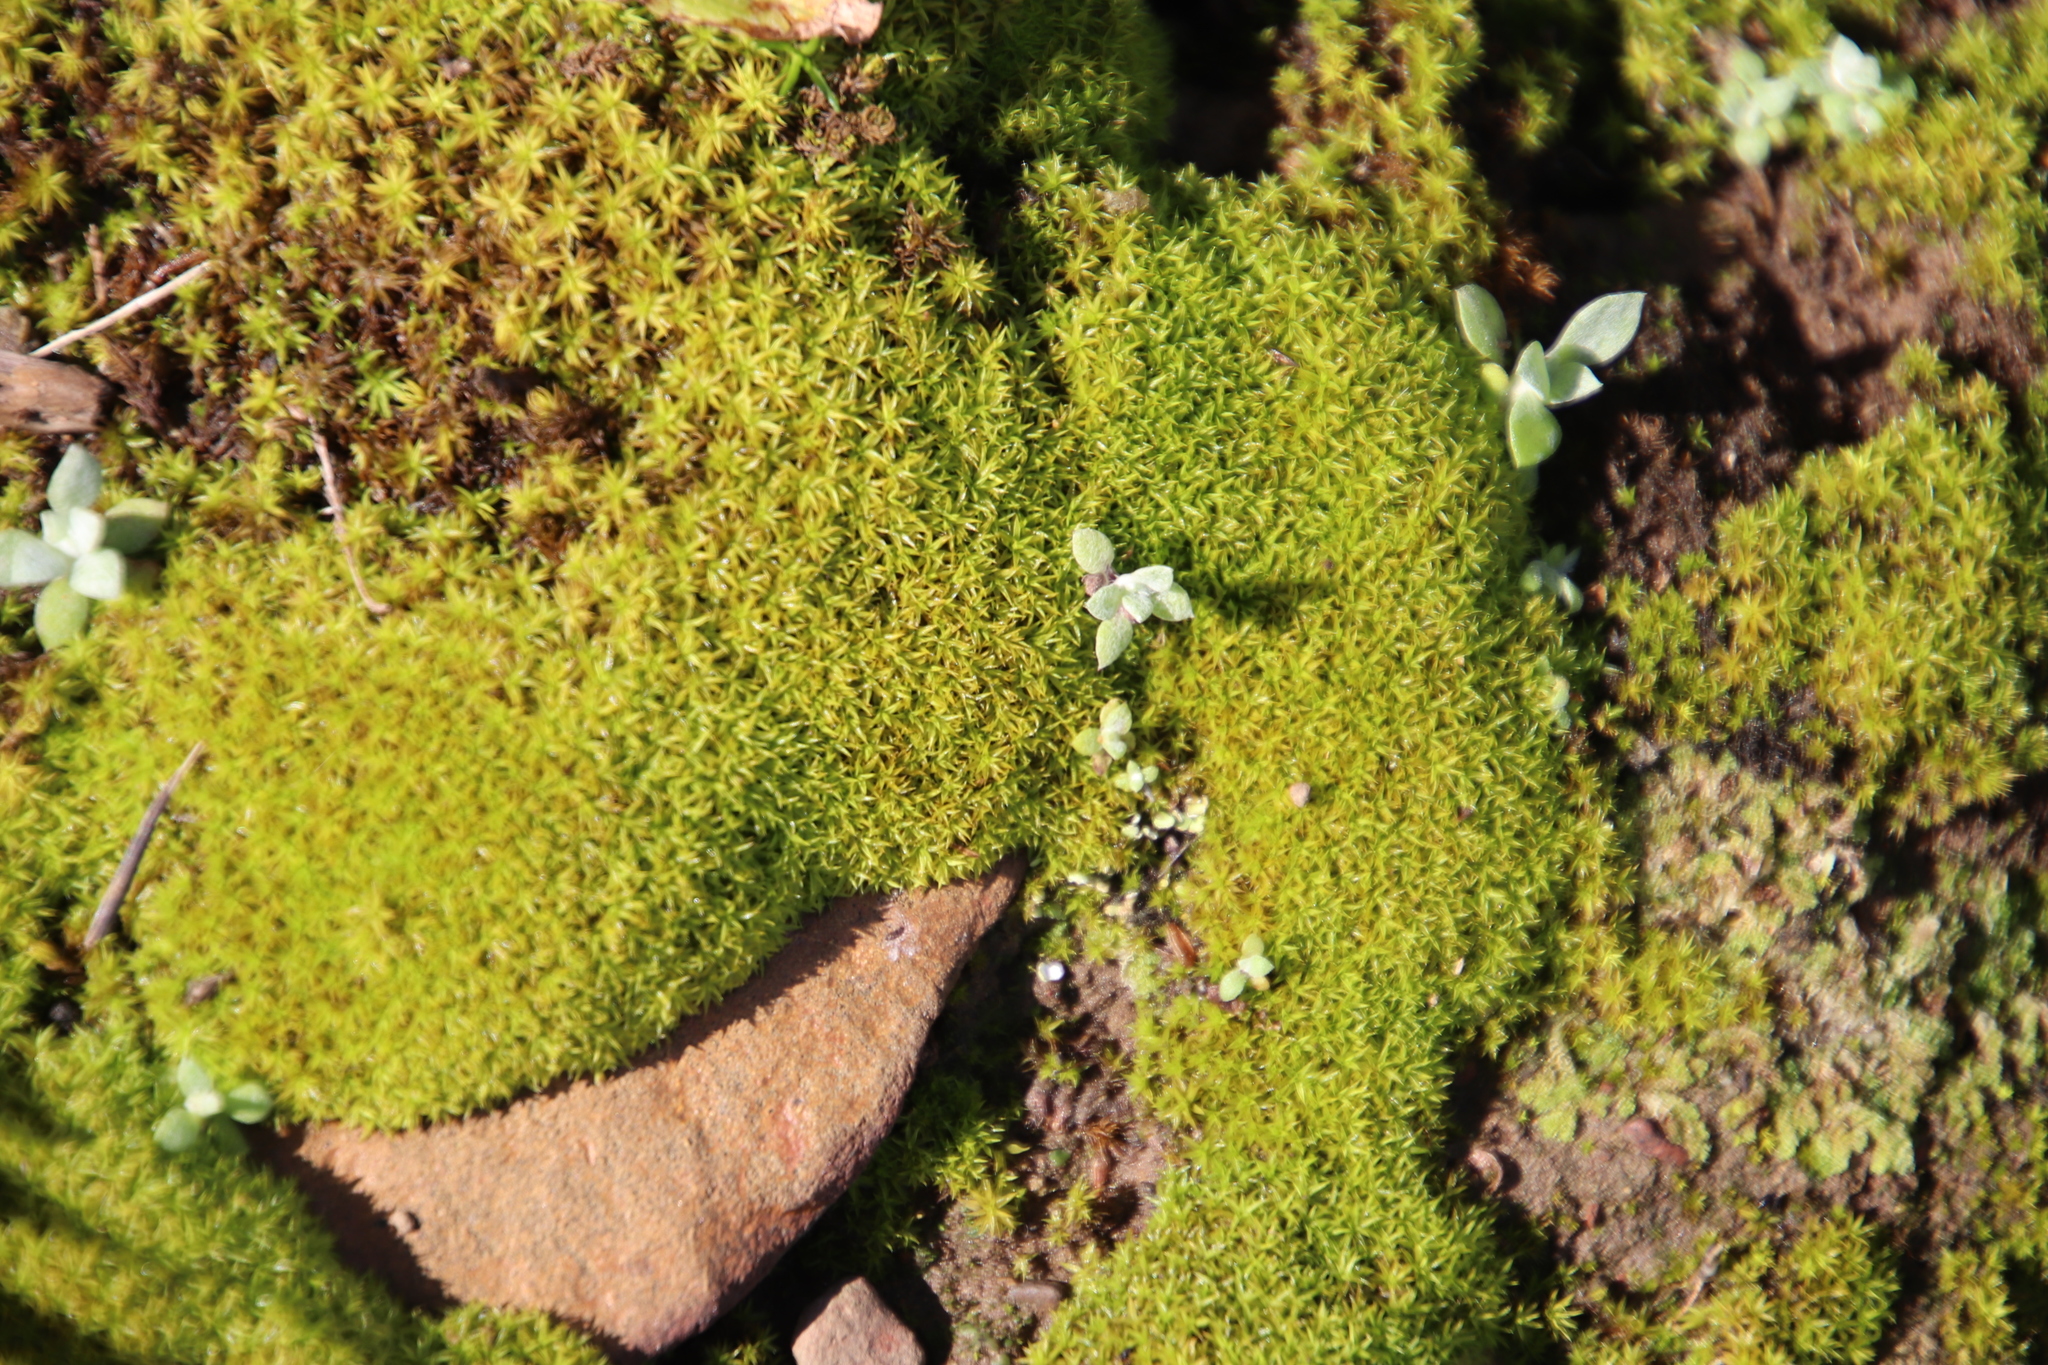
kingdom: Plantae
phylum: Bryophyta
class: Bryopsida
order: Pottiales
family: Pottiaceae
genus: Trichostomum
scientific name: Trichostomum brachydontium
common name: Variable crisp-moss
